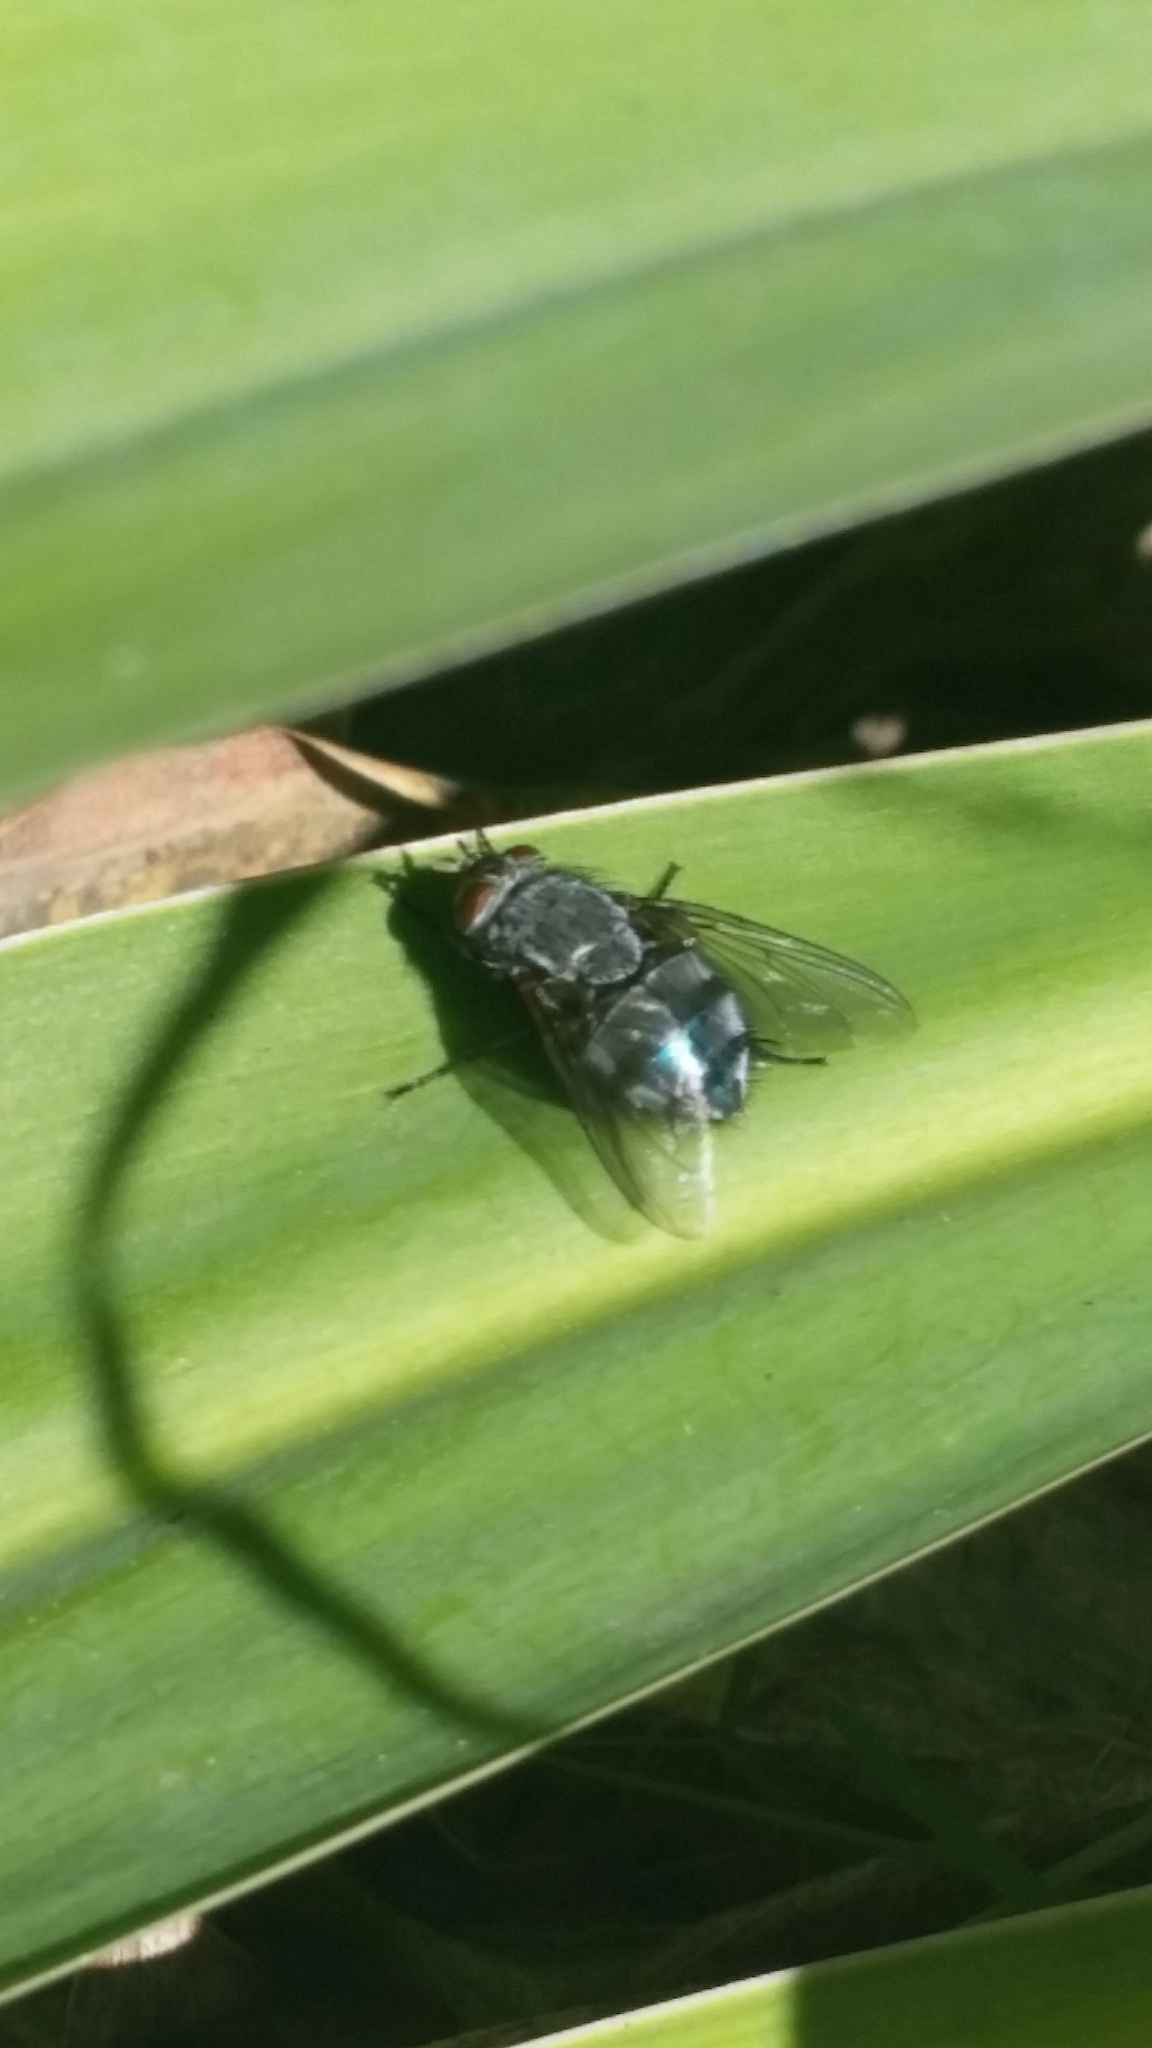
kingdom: Animalia
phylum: Arthropoda
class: Insecta
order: Diptera
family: Calliphoridae
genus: Calliphora
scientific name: Calliphora vicina
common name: Common blow flie
